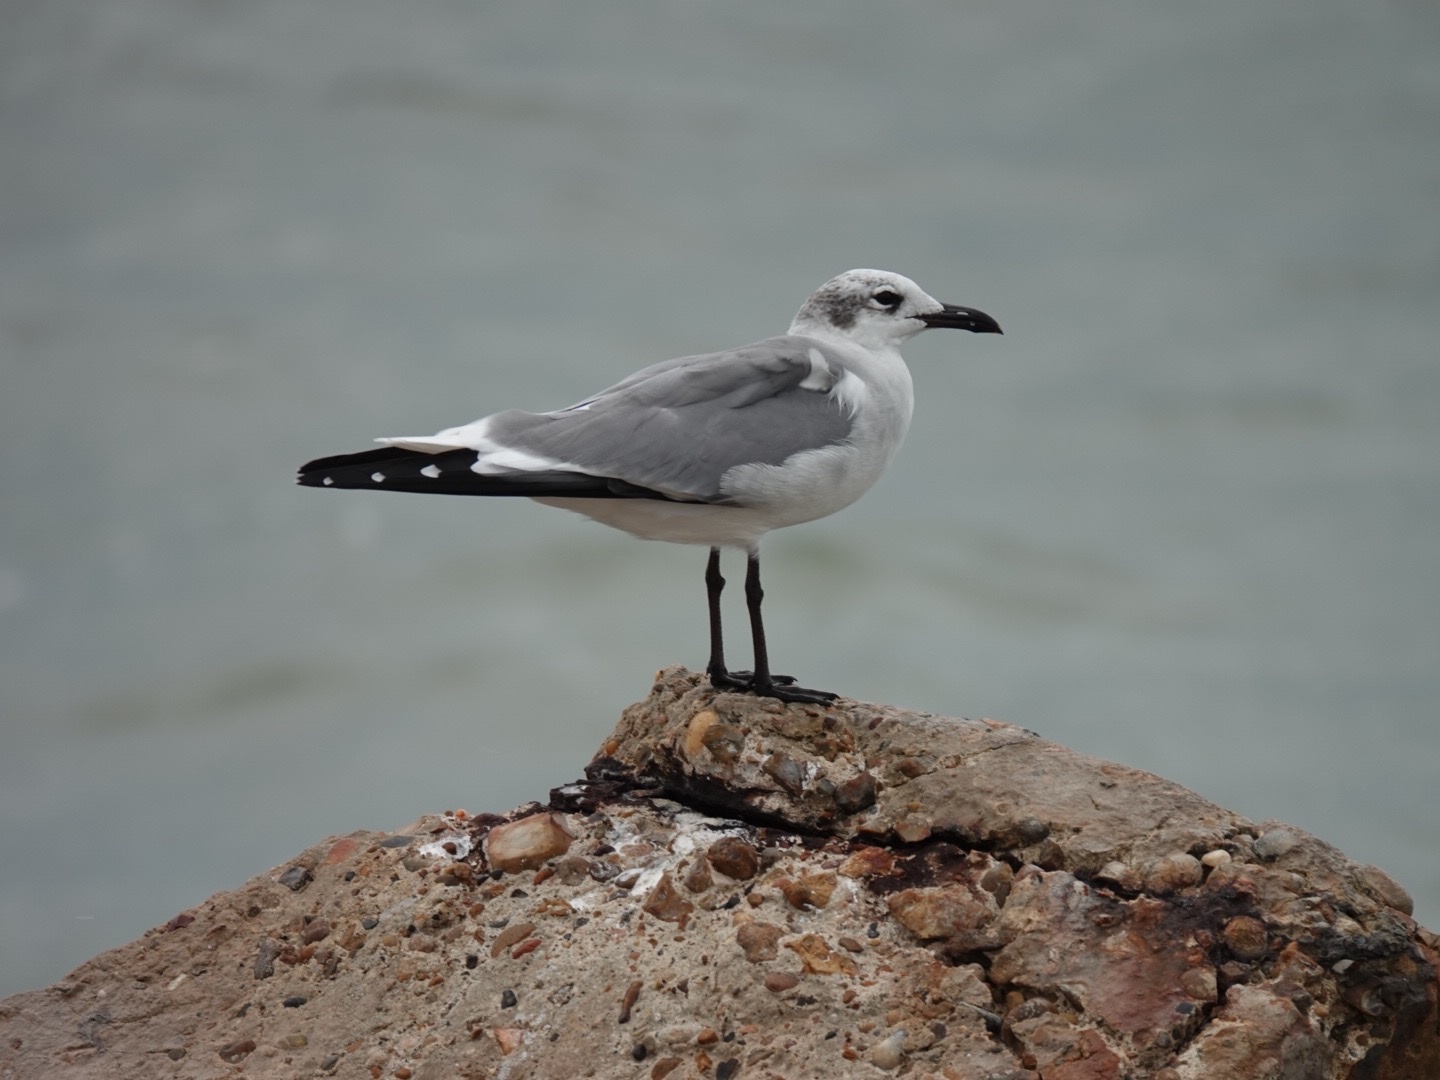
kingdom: Animalia
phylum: Chordata
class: Aves
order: Charadriiformes
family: Laridae
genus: Leucophaeus
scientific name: Leucophaeus atricilla
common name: Laughing gull
